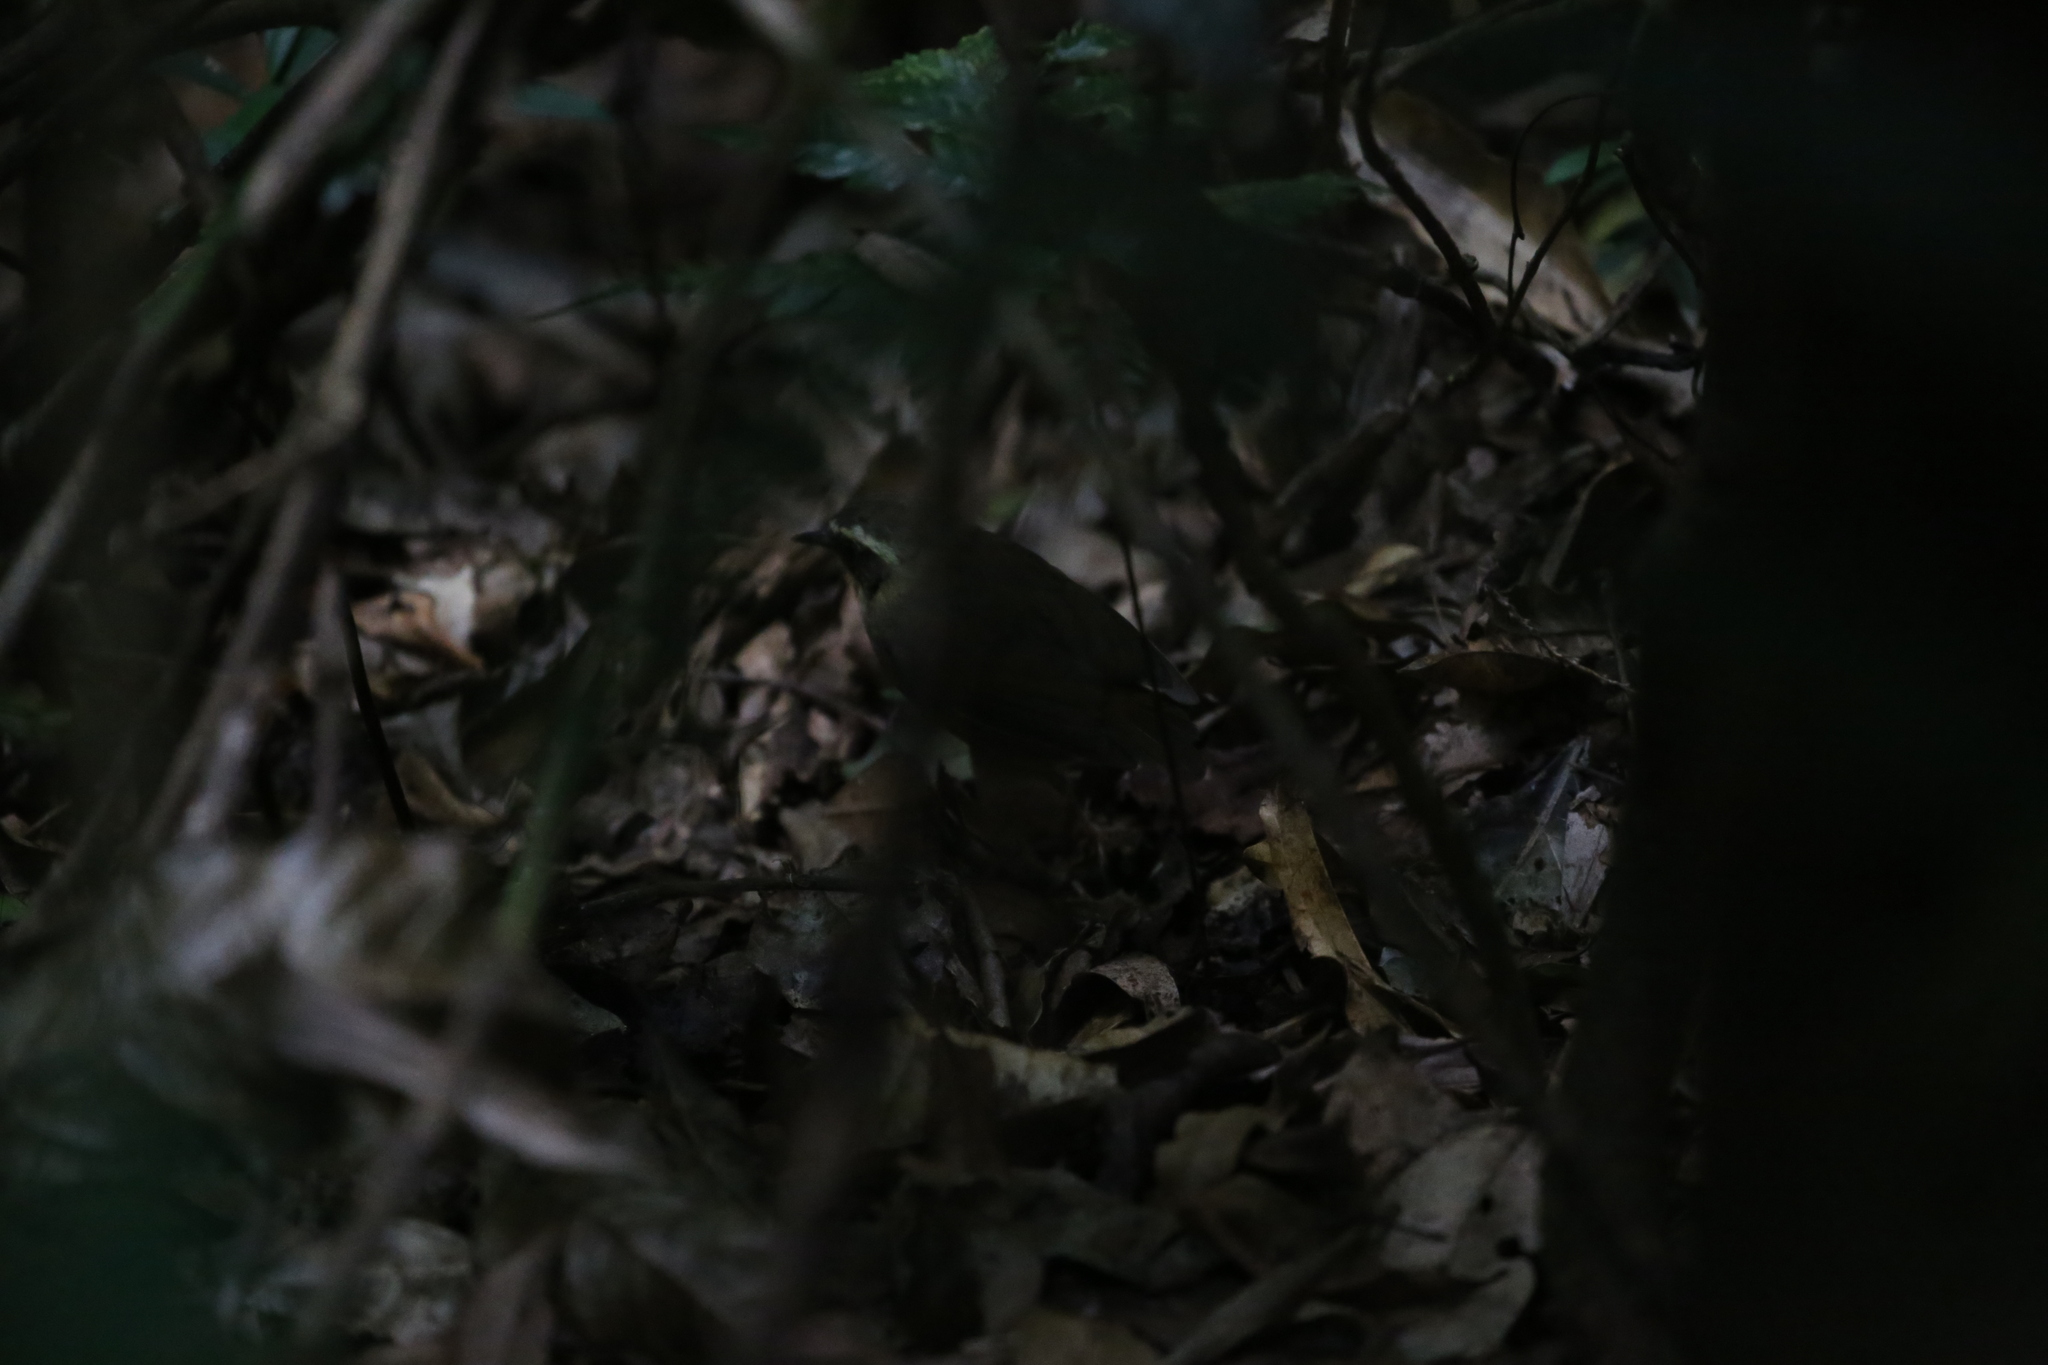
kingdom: Animalia
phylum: Chordata
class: Aves
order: Passeriformes
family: Acanthizidae
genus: Sericornis
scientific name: Sericornis citreogularis
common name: Yellow-throated scrubwren
